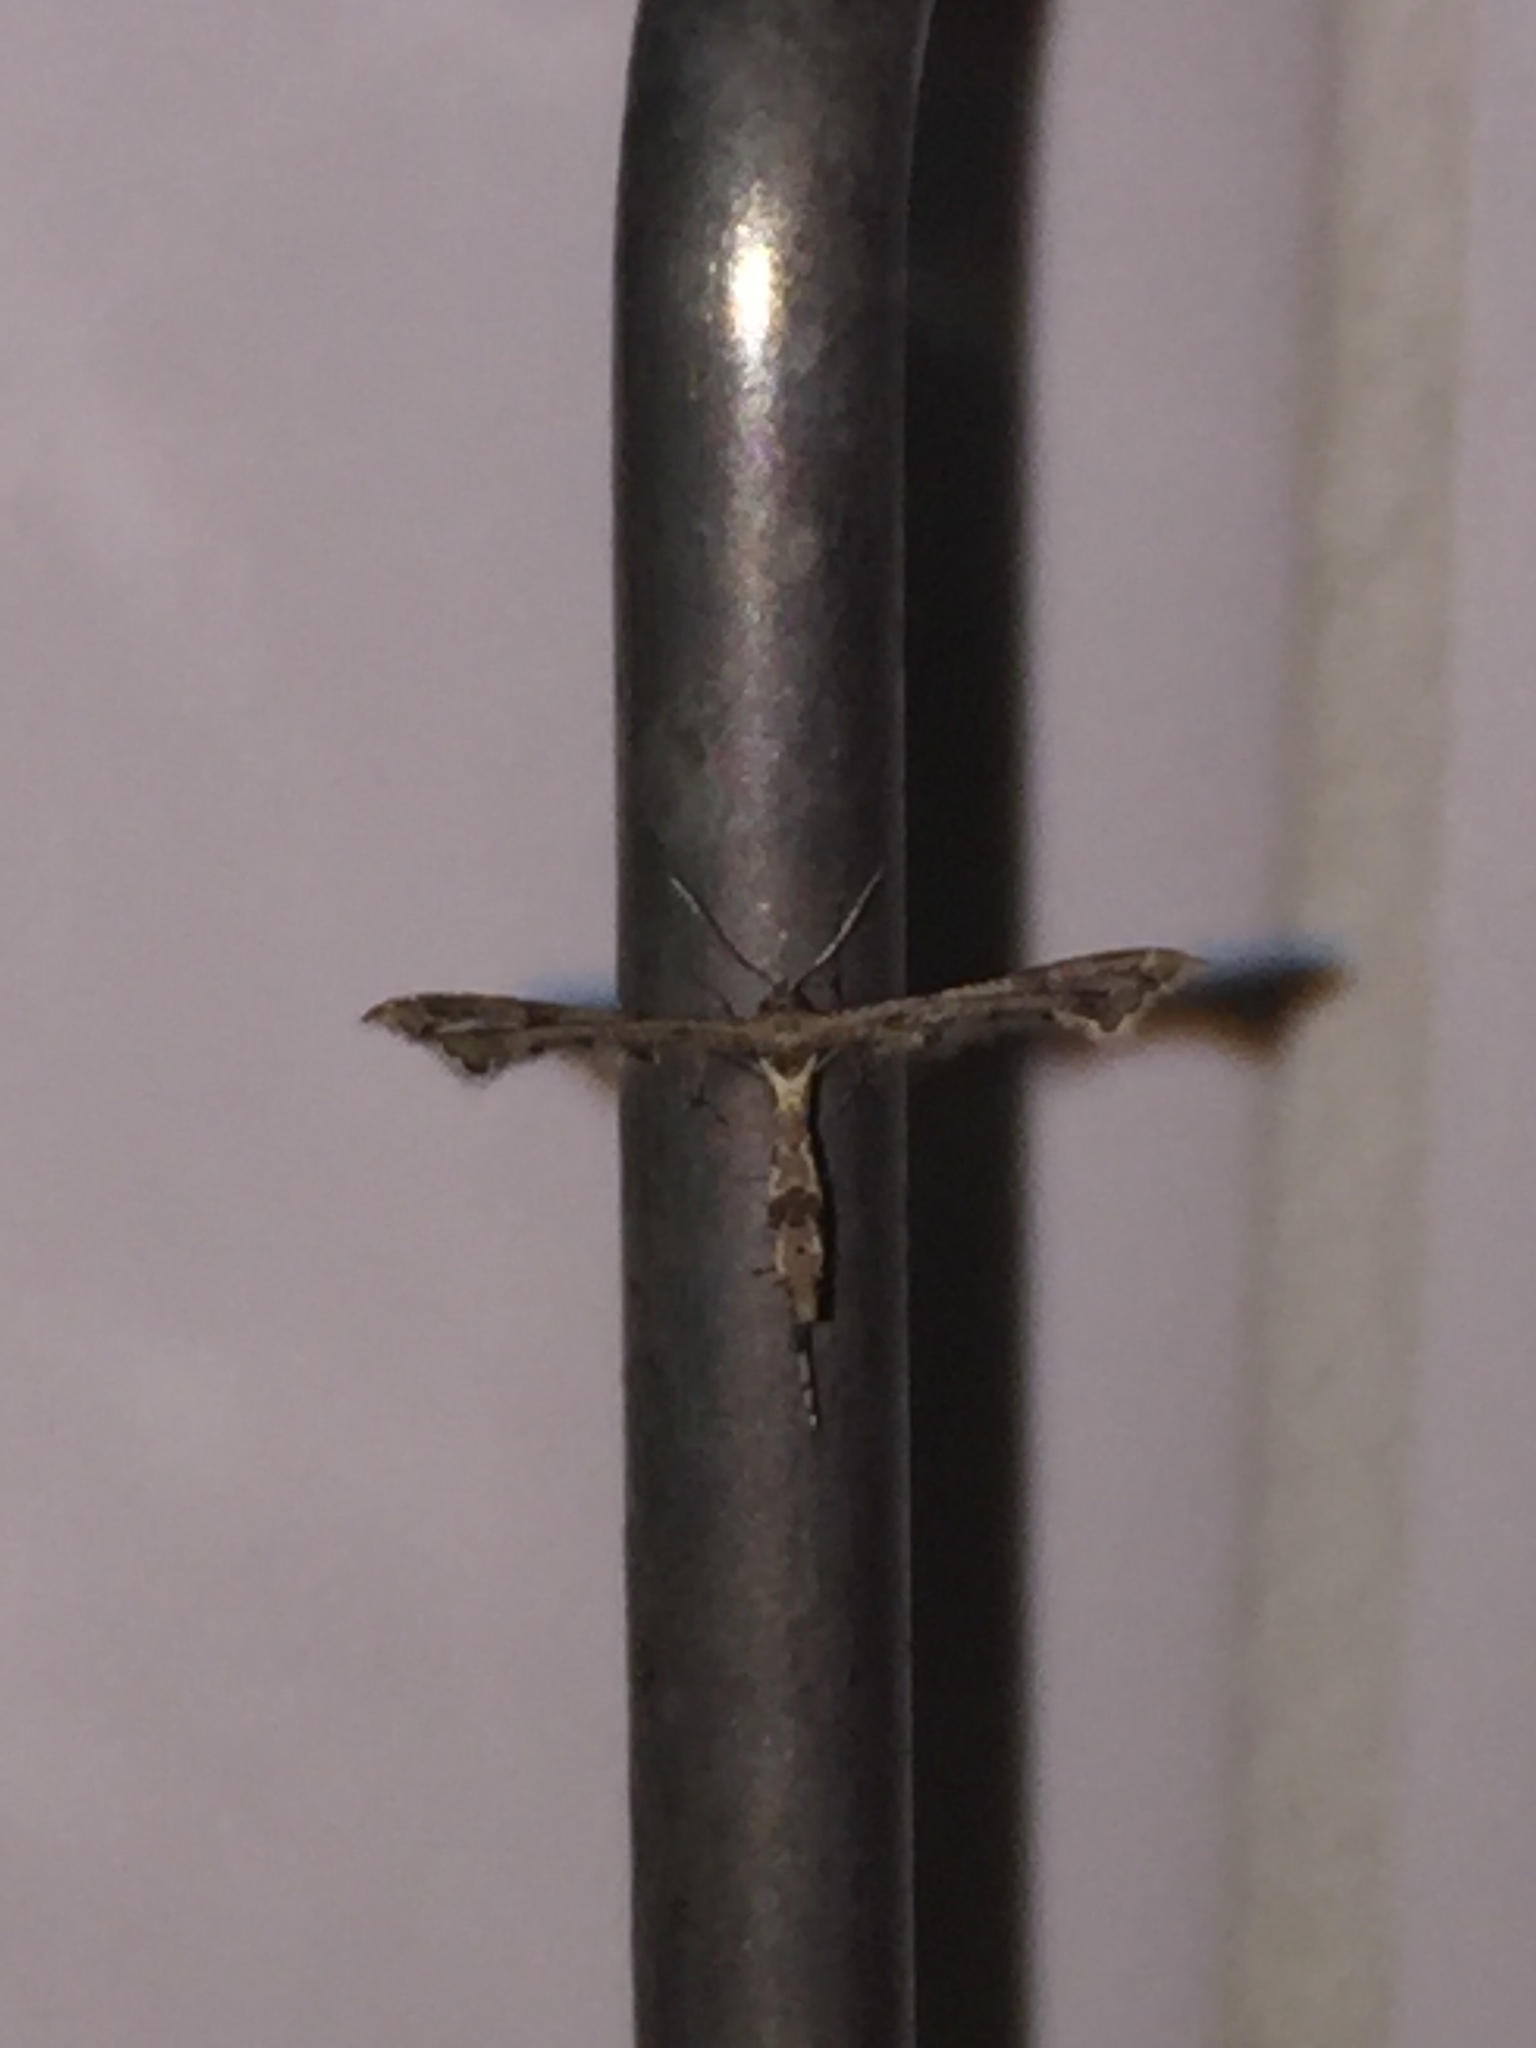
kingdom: Animalia
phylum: Arthropoda
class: Insecta
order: Lepidoptera
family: Pterophoridae
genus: Lantanophaga
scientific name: Lantanophaga pusillidactylus
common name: Moth
